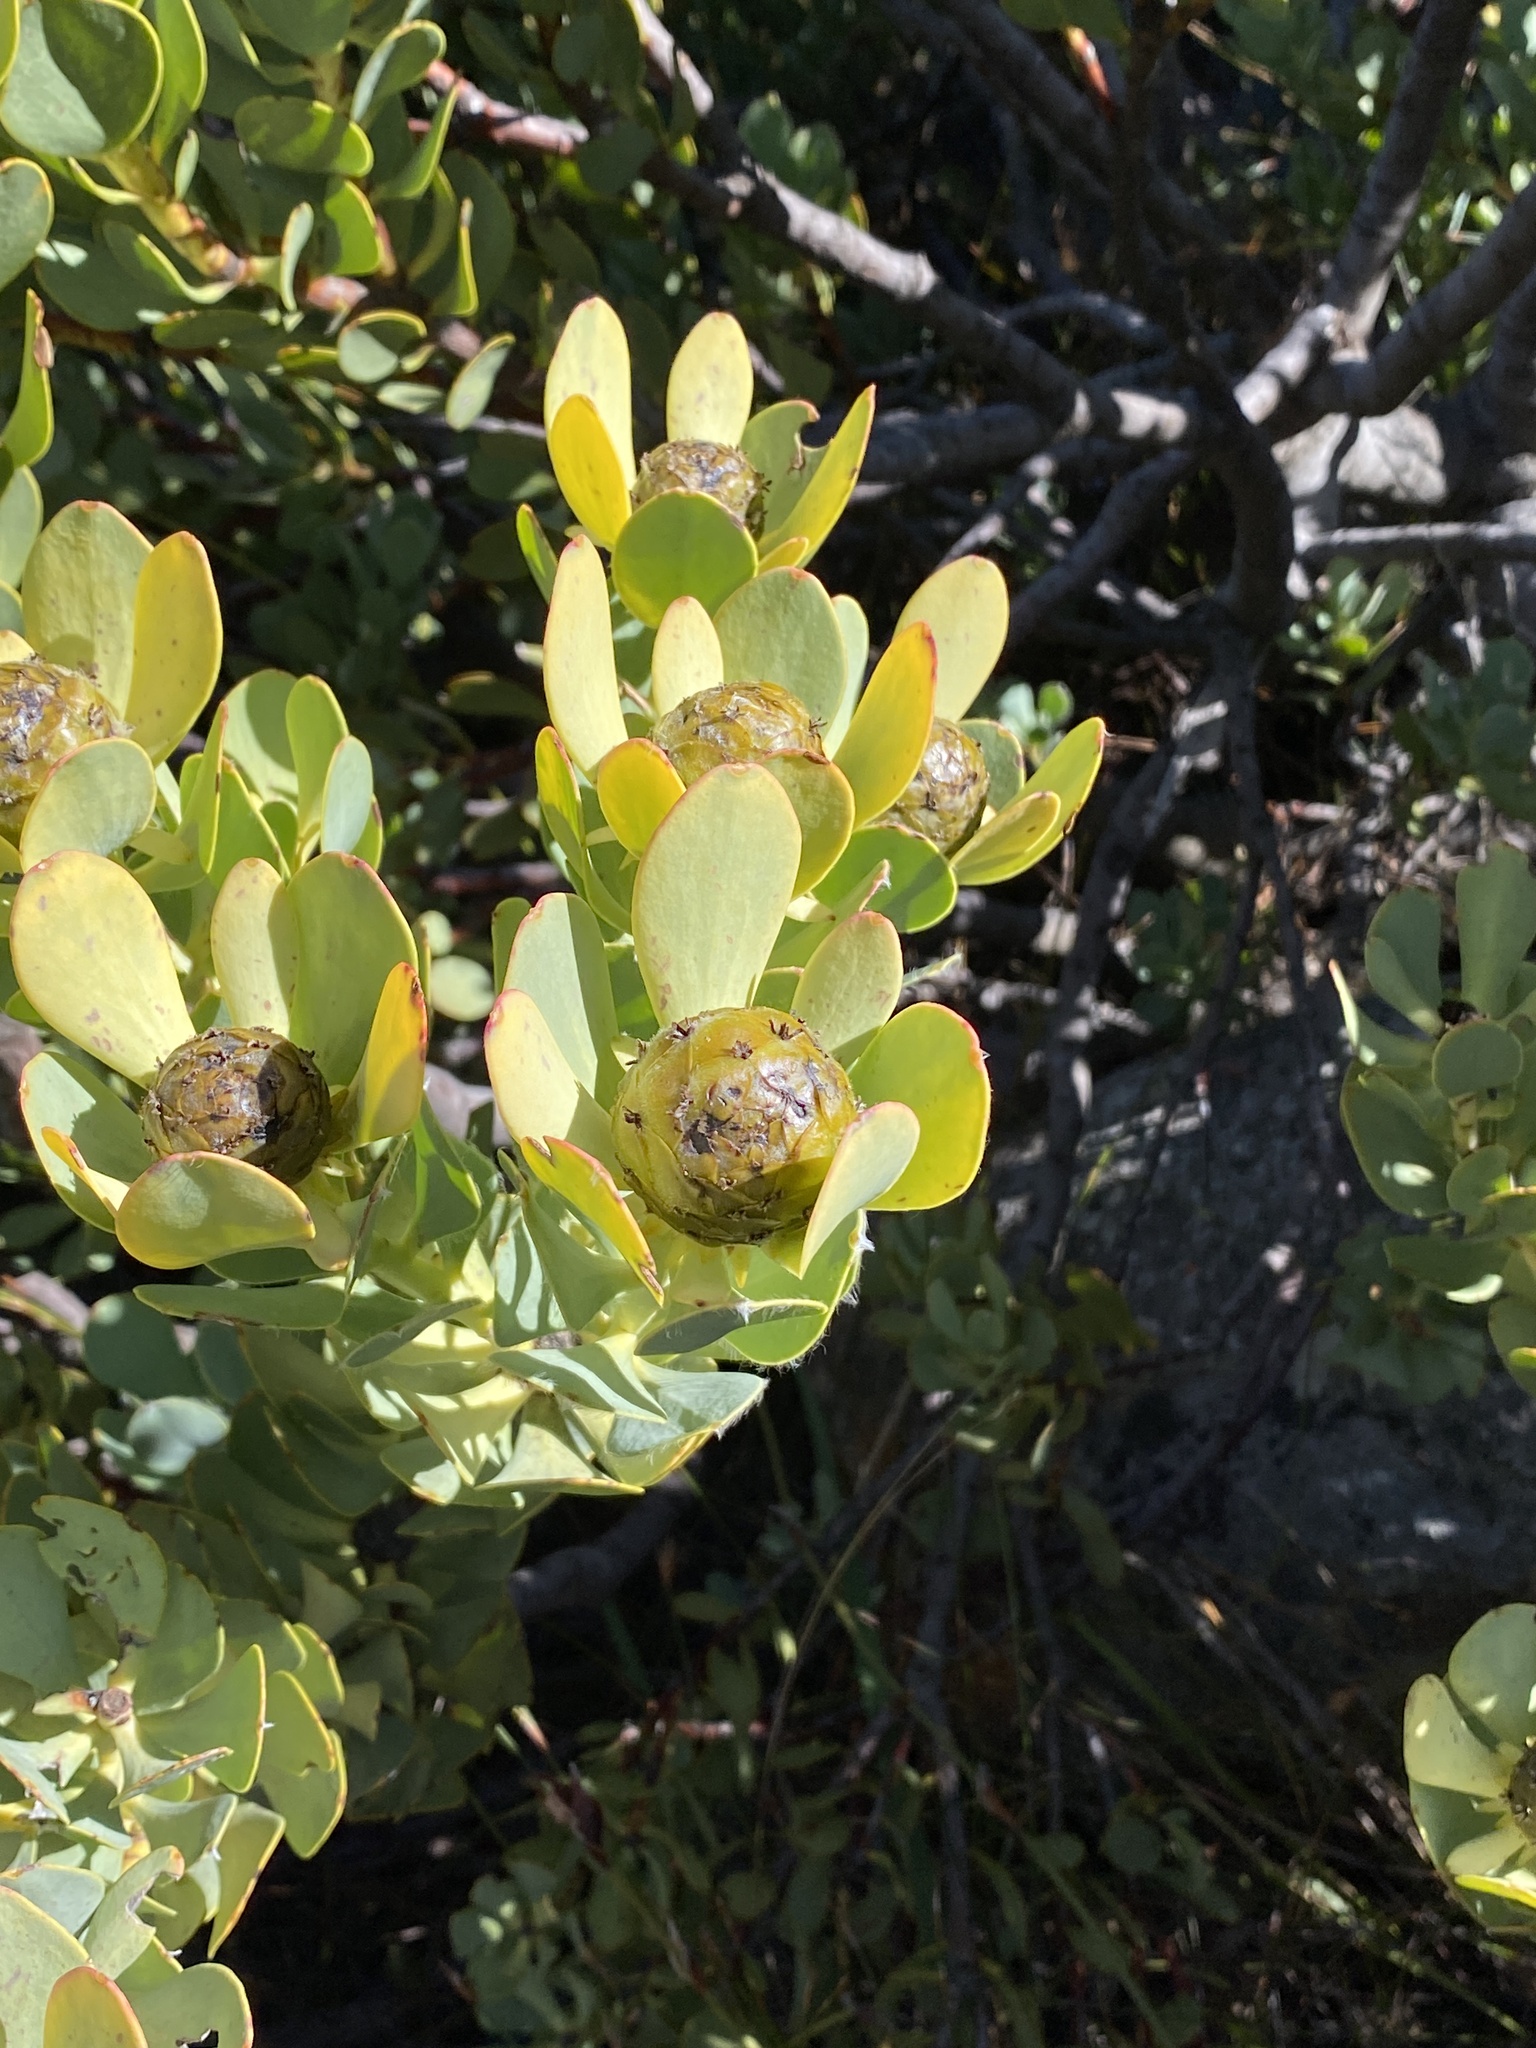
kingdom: Plantae
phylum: Tracheophyta
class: Magnoliopsida
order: Proteales
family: Proteaceae
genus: Leucadendron
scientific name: Leucadendron arcuatum
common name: Red-edge conebush
